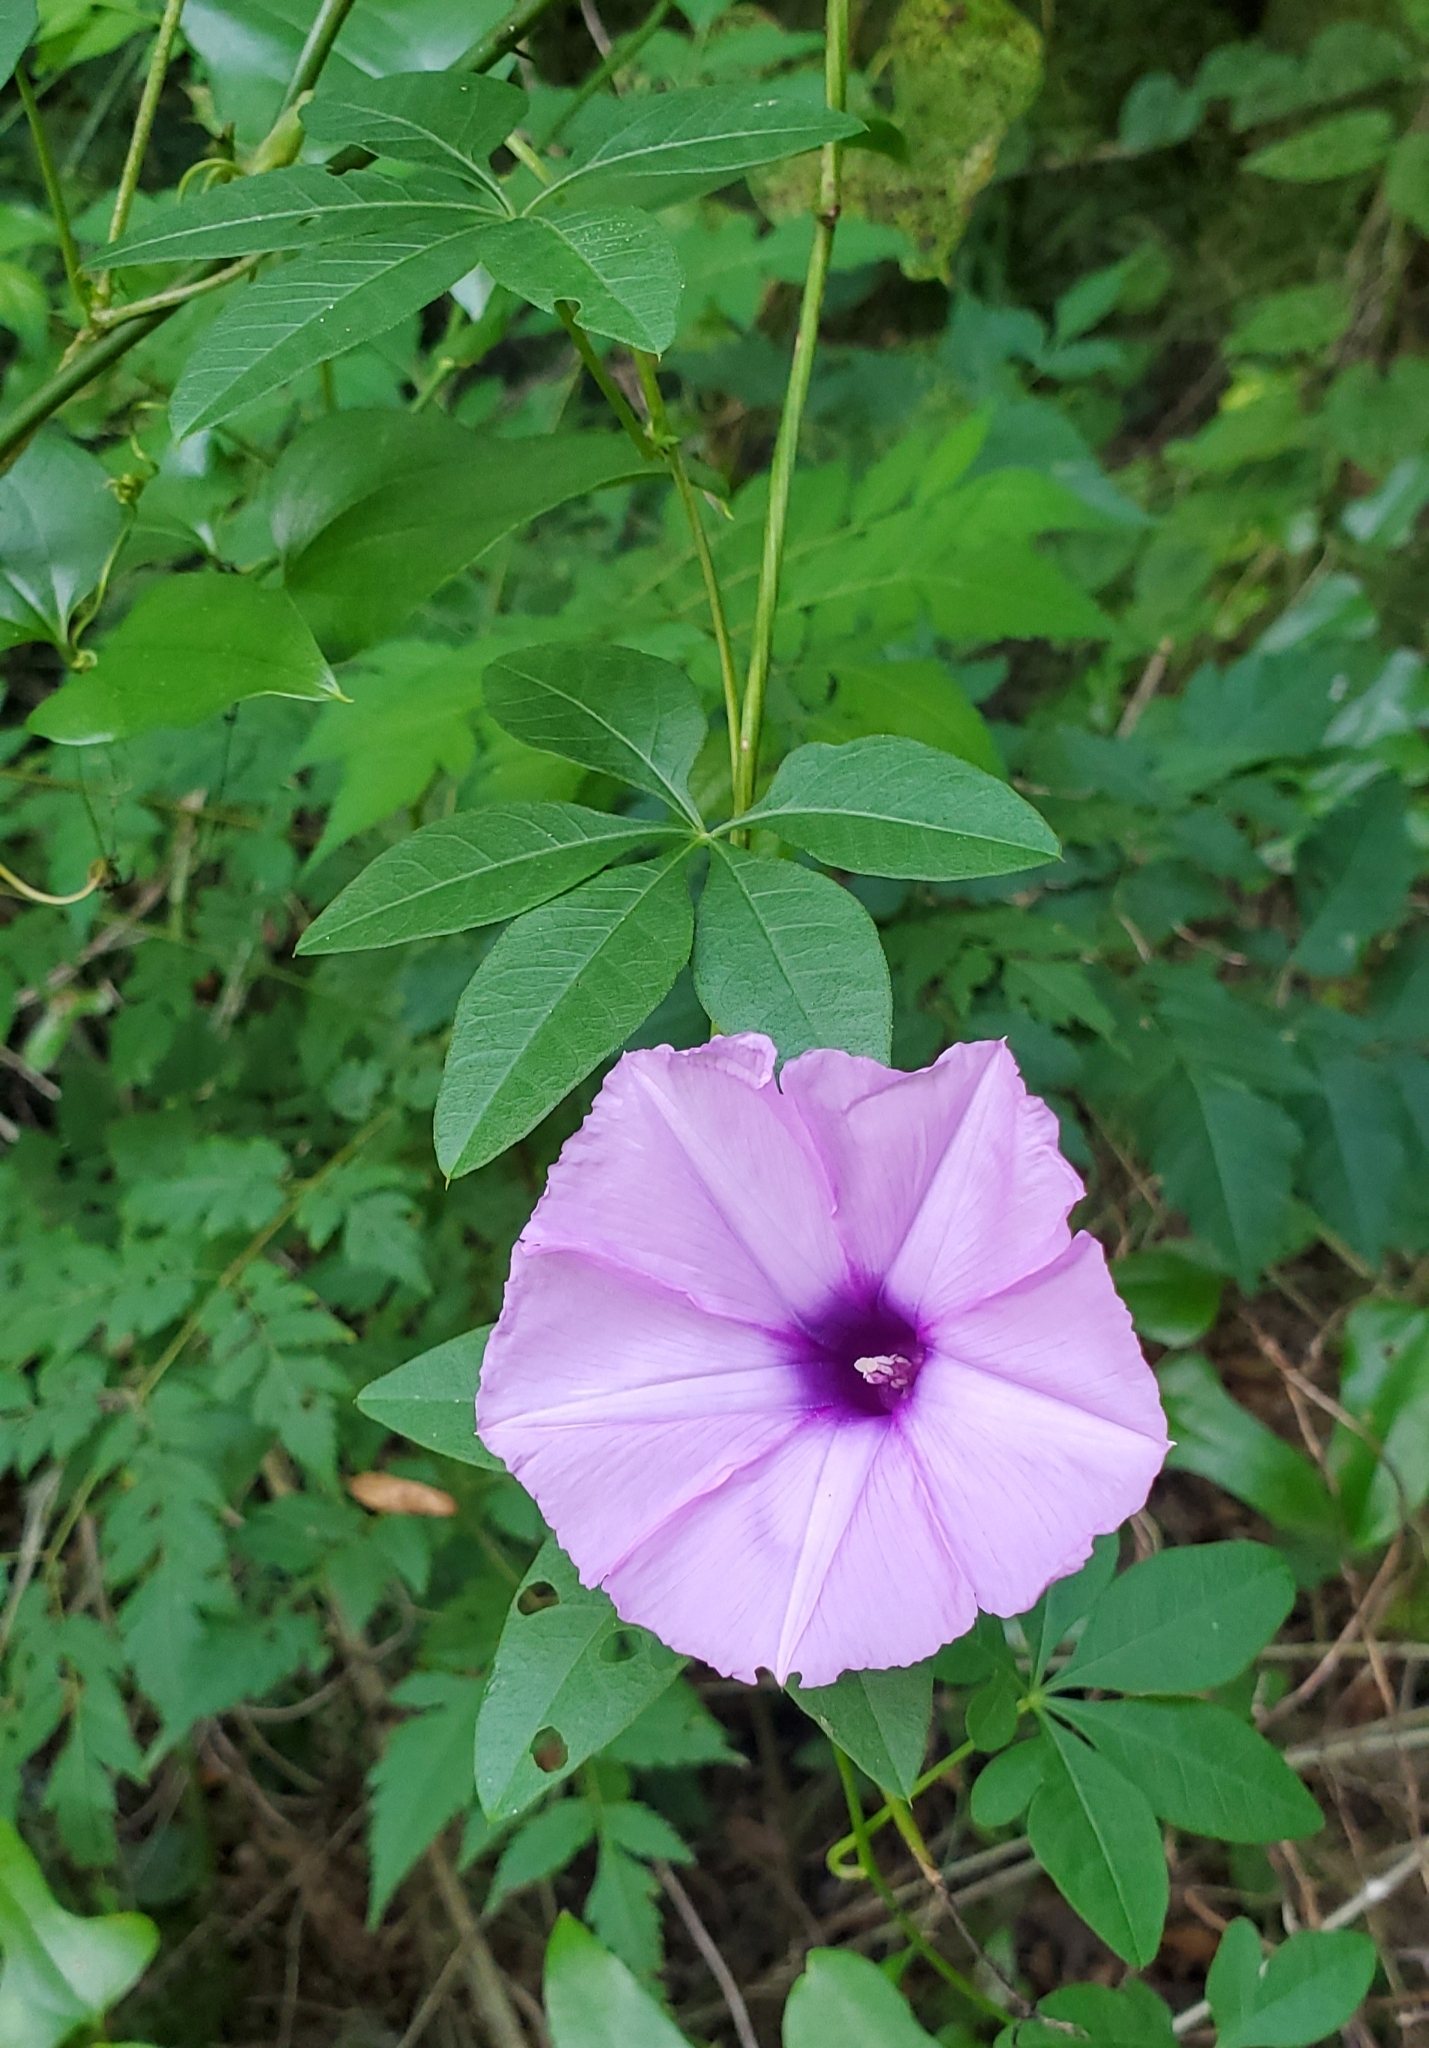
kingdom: Plantae
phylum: Tracheophyta
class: Magnoliopsida
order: Solanales
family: Convolvulaceae
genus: Ipomoea
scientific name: Ipomoea cairica
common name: Mile a minute vine
